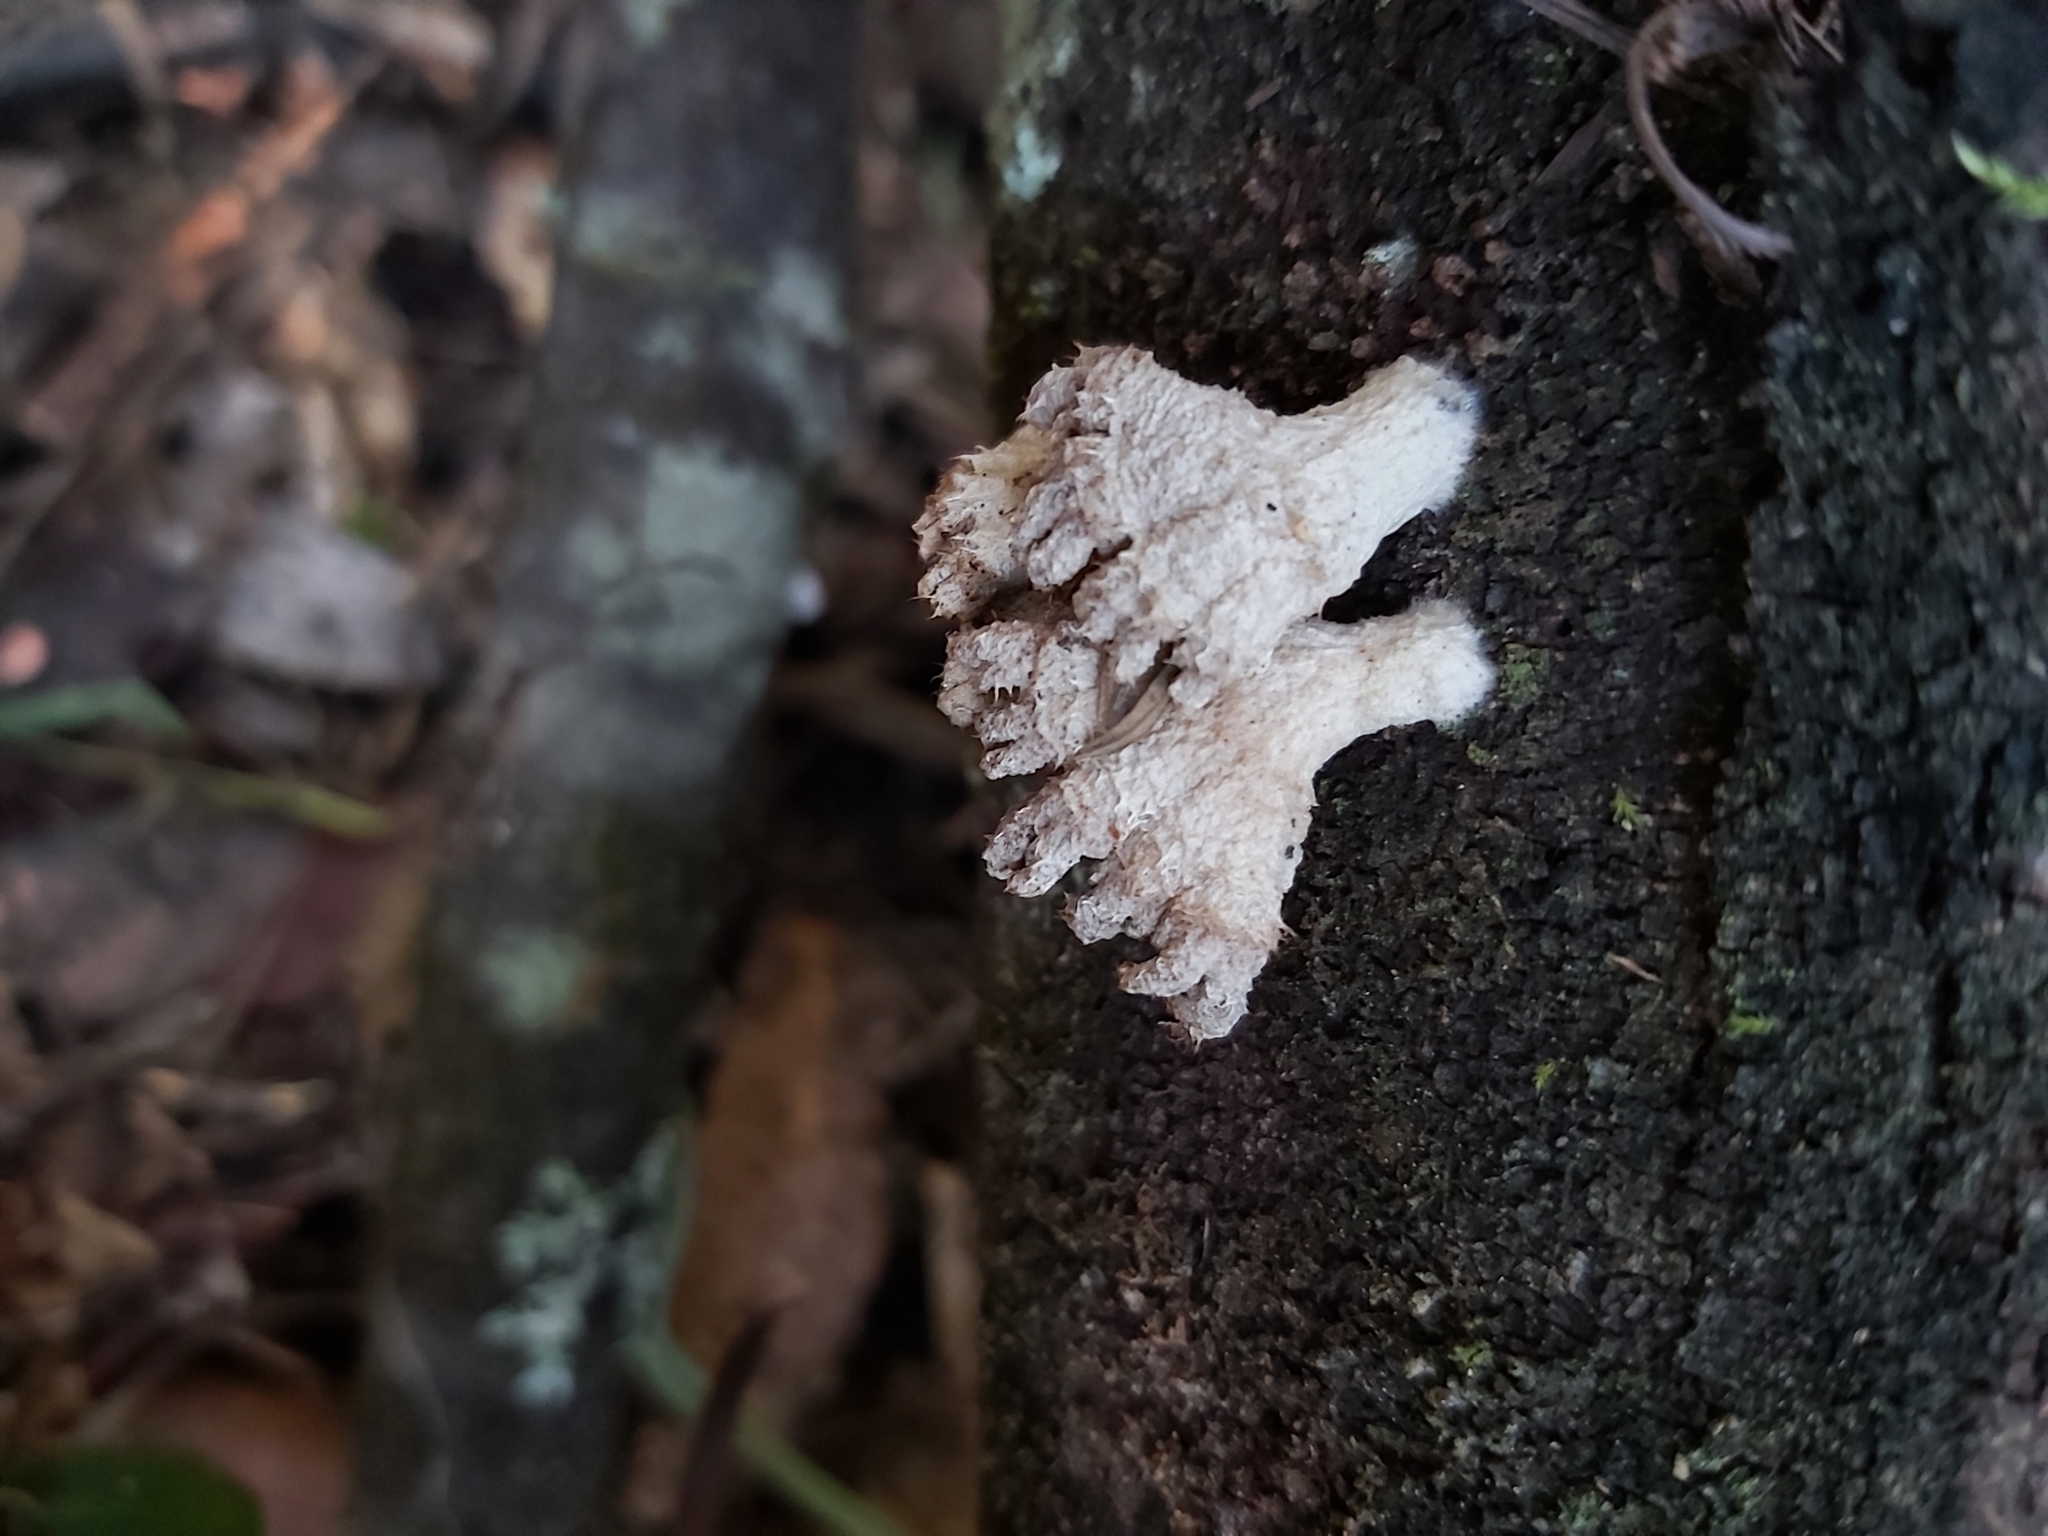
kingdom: Fungi
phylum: Basidiomycota
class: Agaricomycetes
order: Agaricales
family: Schizophyllaceae
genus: Schizophyllum
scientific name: Schizophyllum commune
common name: Common porecrust
